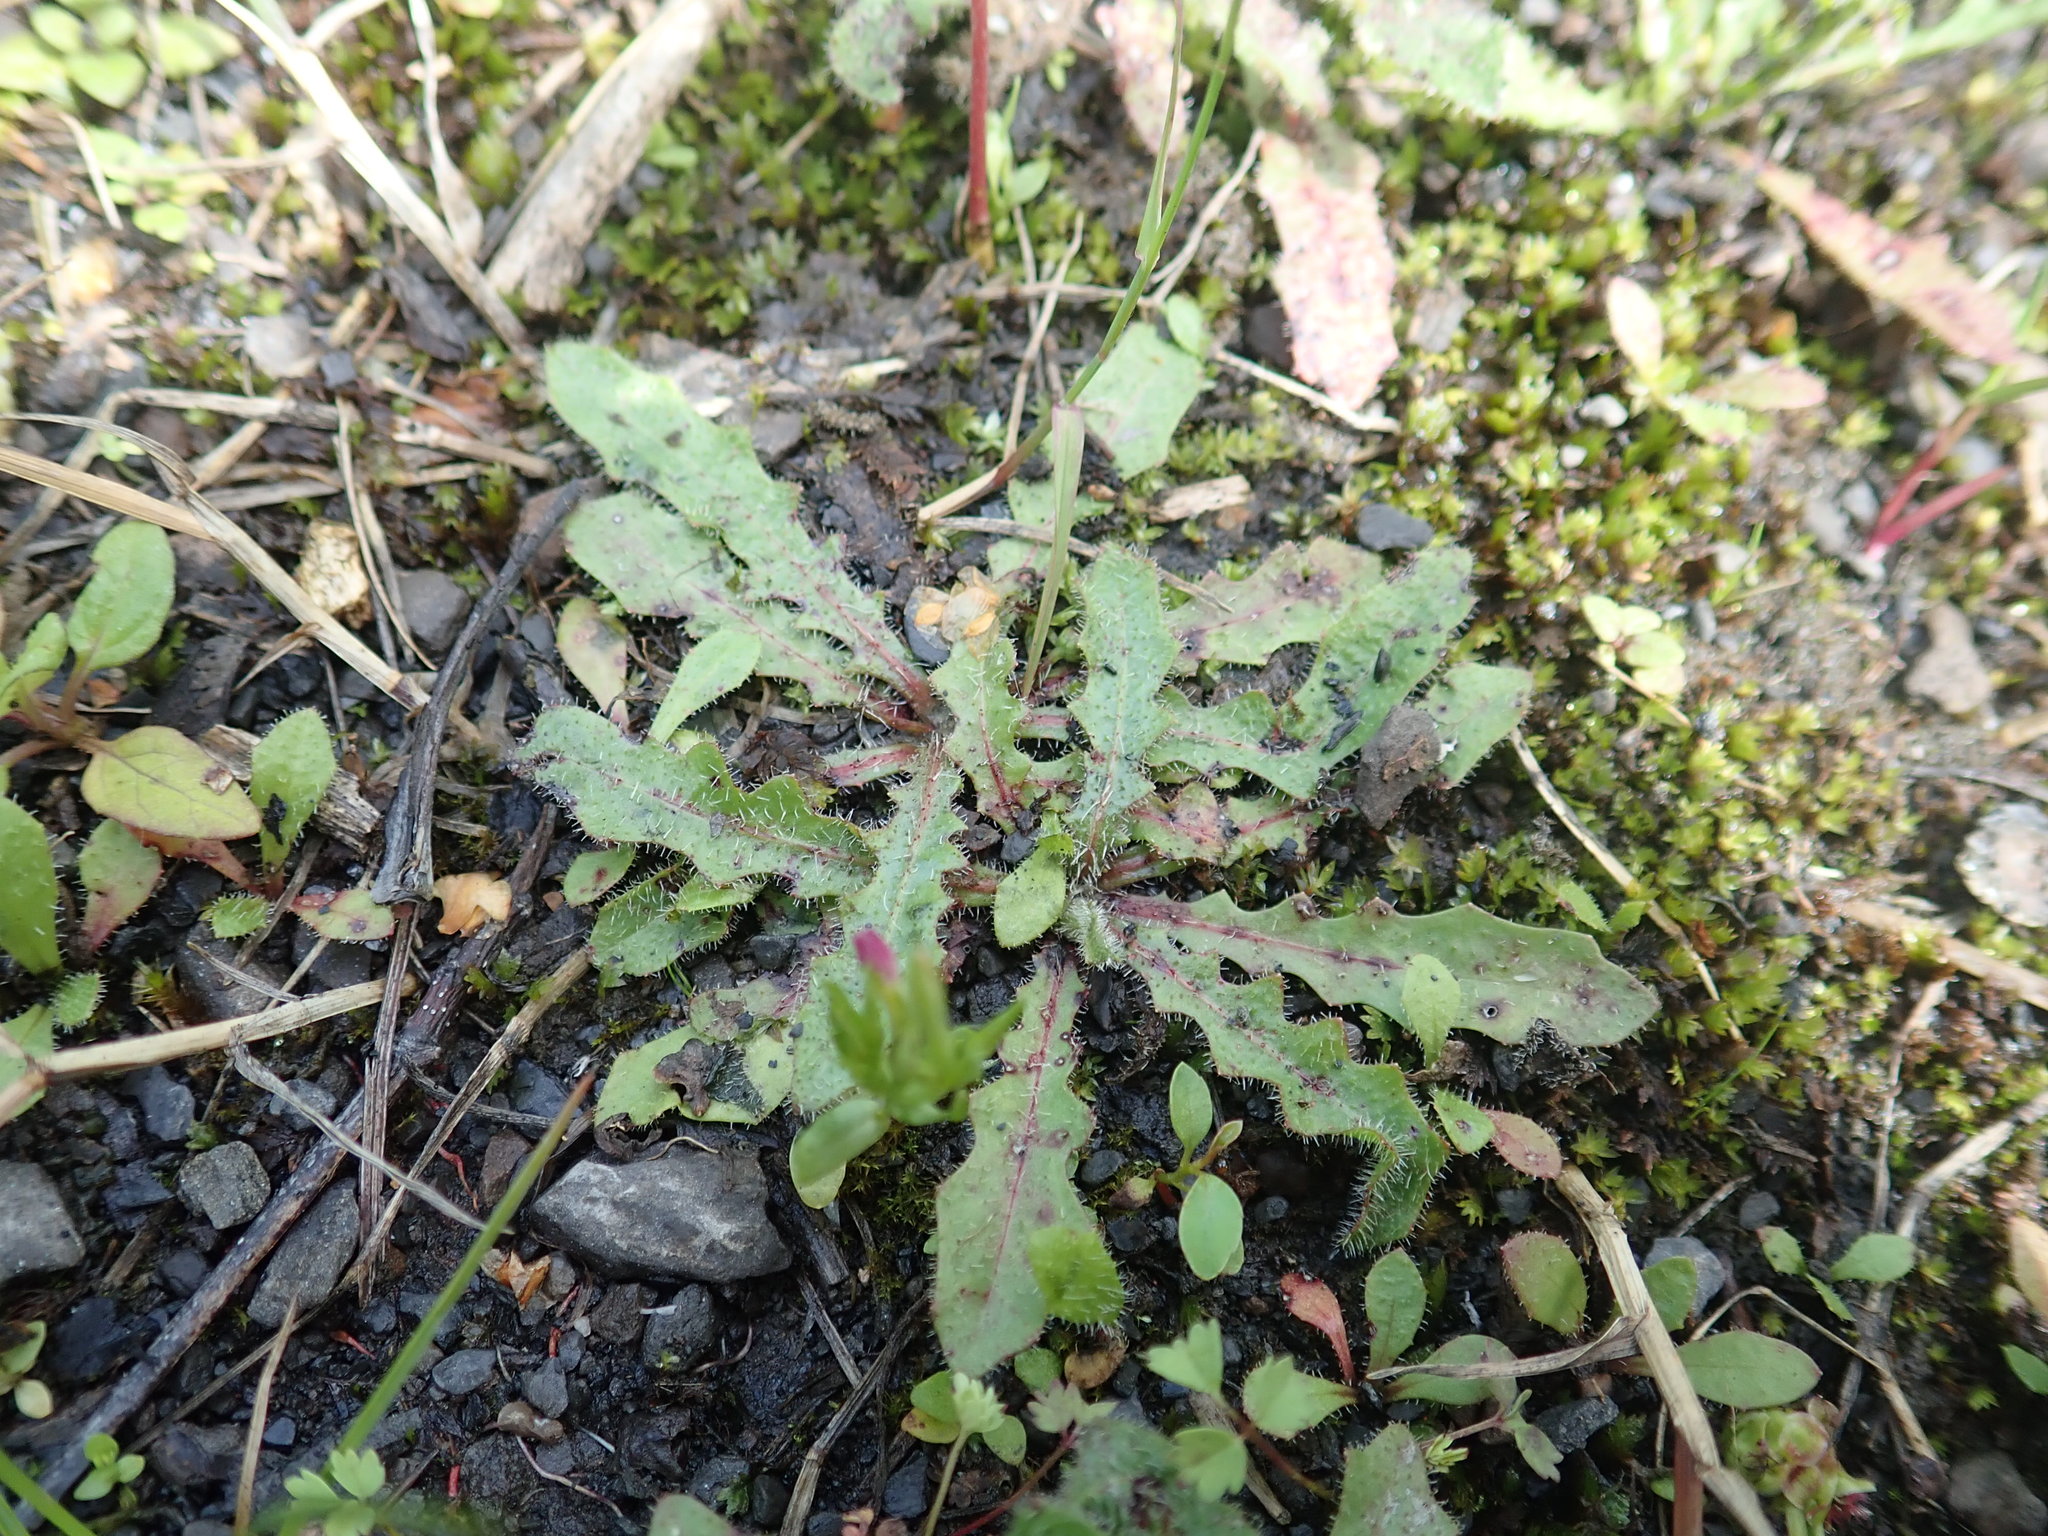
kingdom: Plantae
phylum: Tracheophyta
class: Magnoliopsida
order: Asterales
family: Asteraceae
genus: Hypochaeris
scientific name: Hypochaeris radicata
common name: Flatweed
